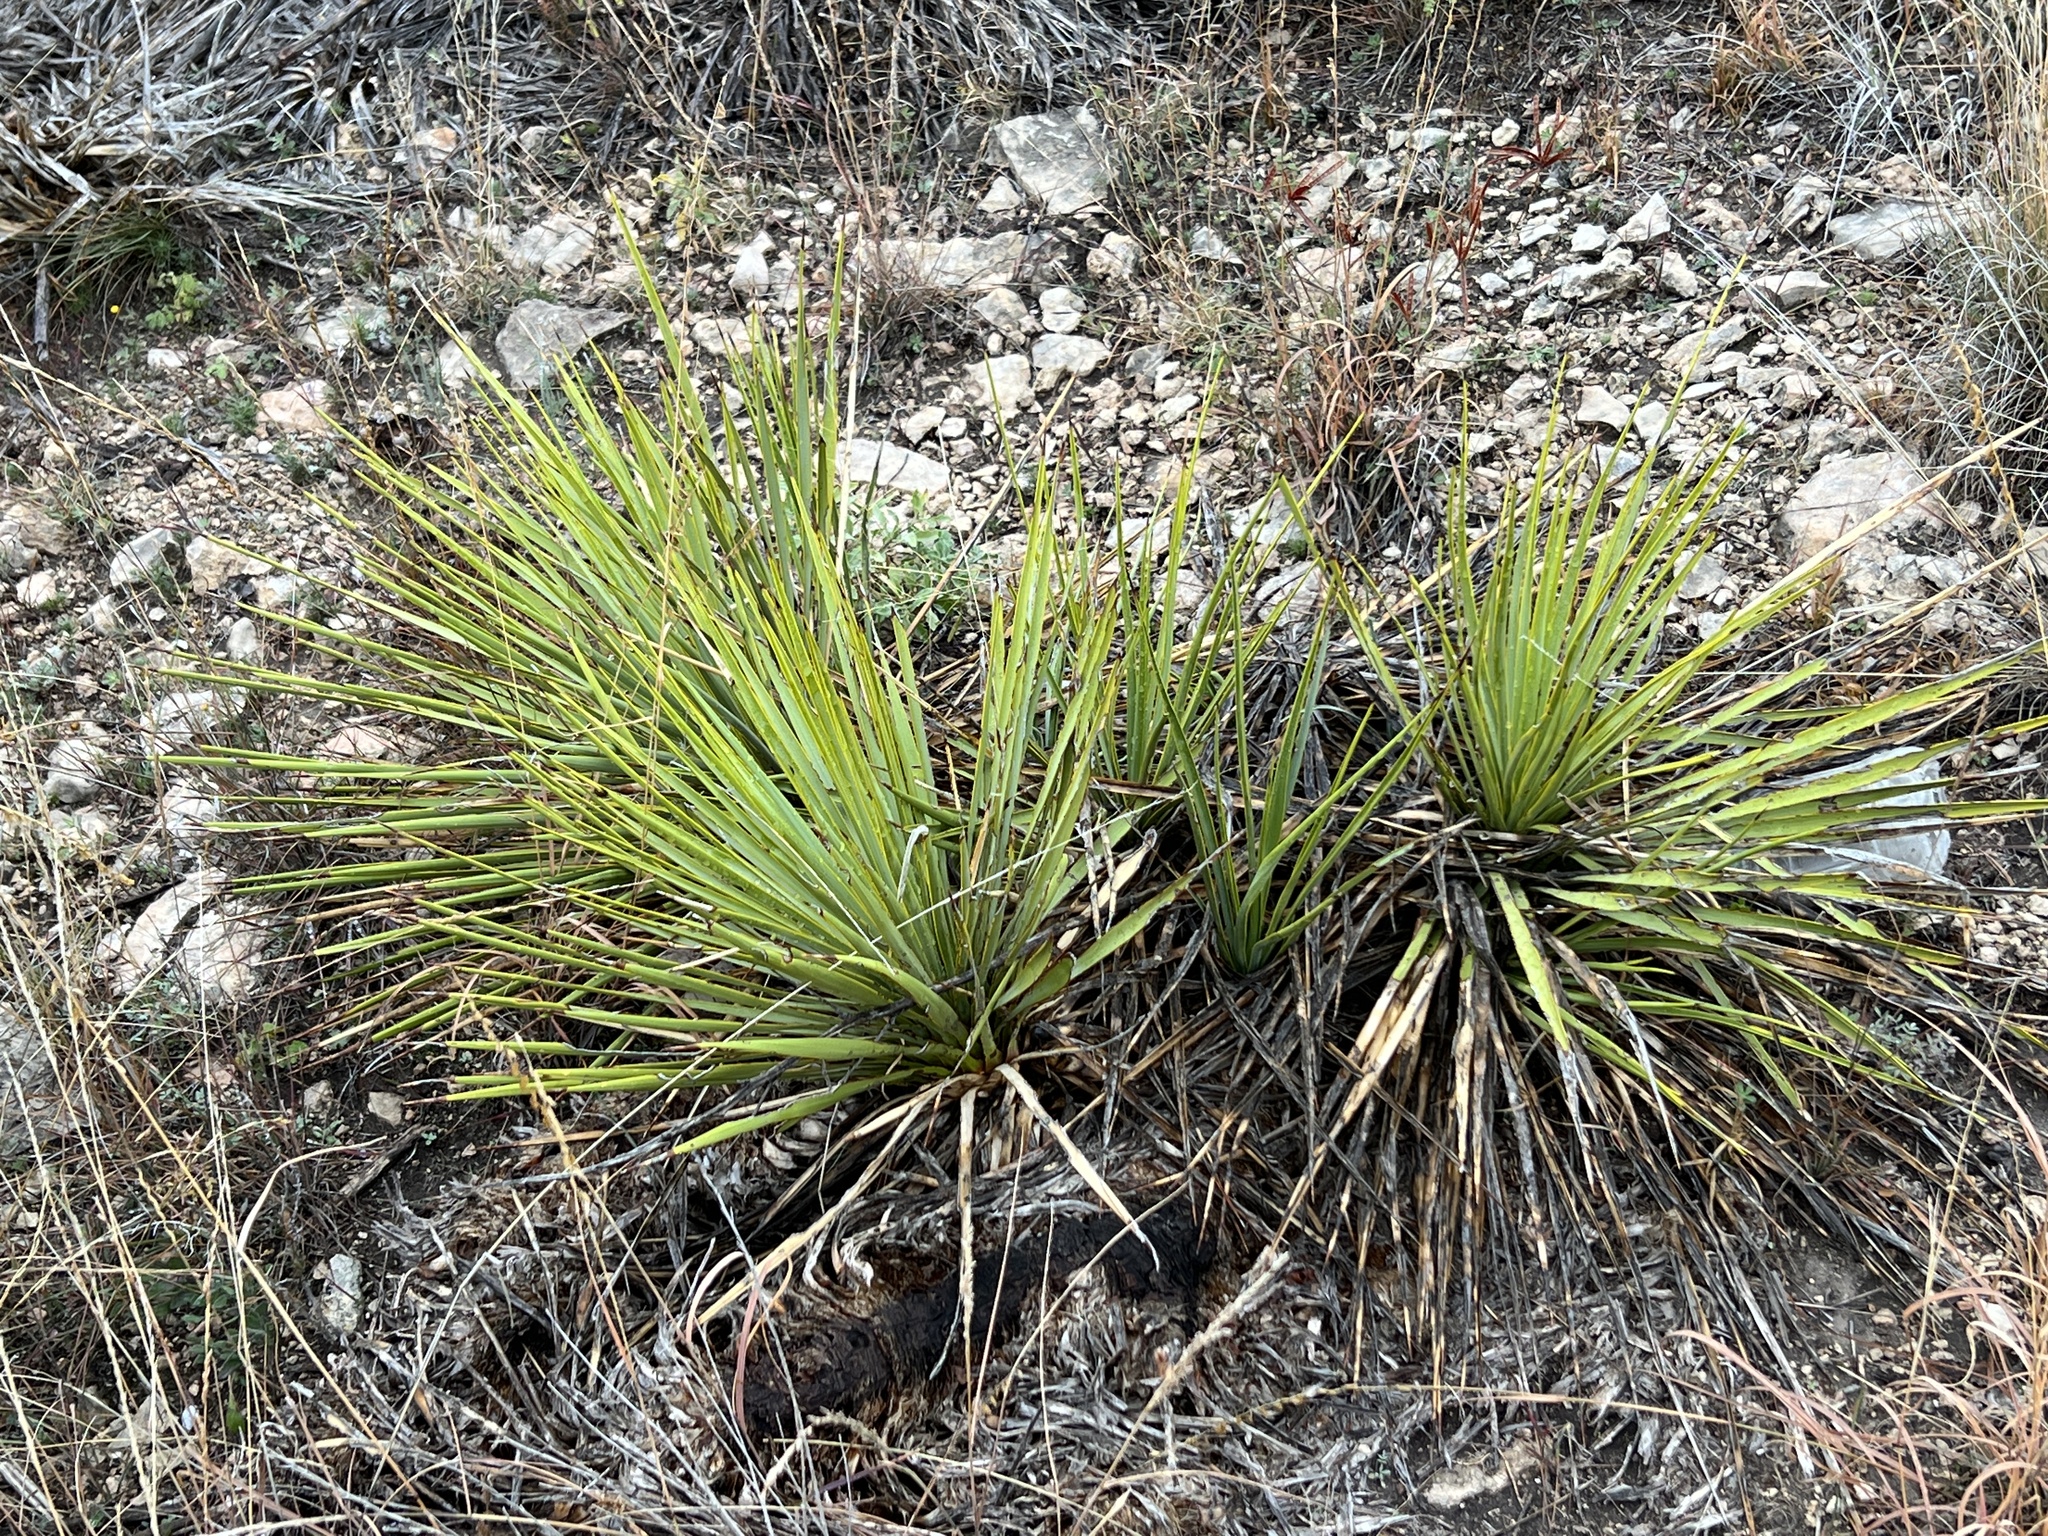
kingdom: Plantae
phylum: Tracheophyta
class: Liliopsida
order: Asparagales
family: Asparagaceae
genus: Yucca
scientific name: Yucca reverchonii
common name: San angelo yucca
